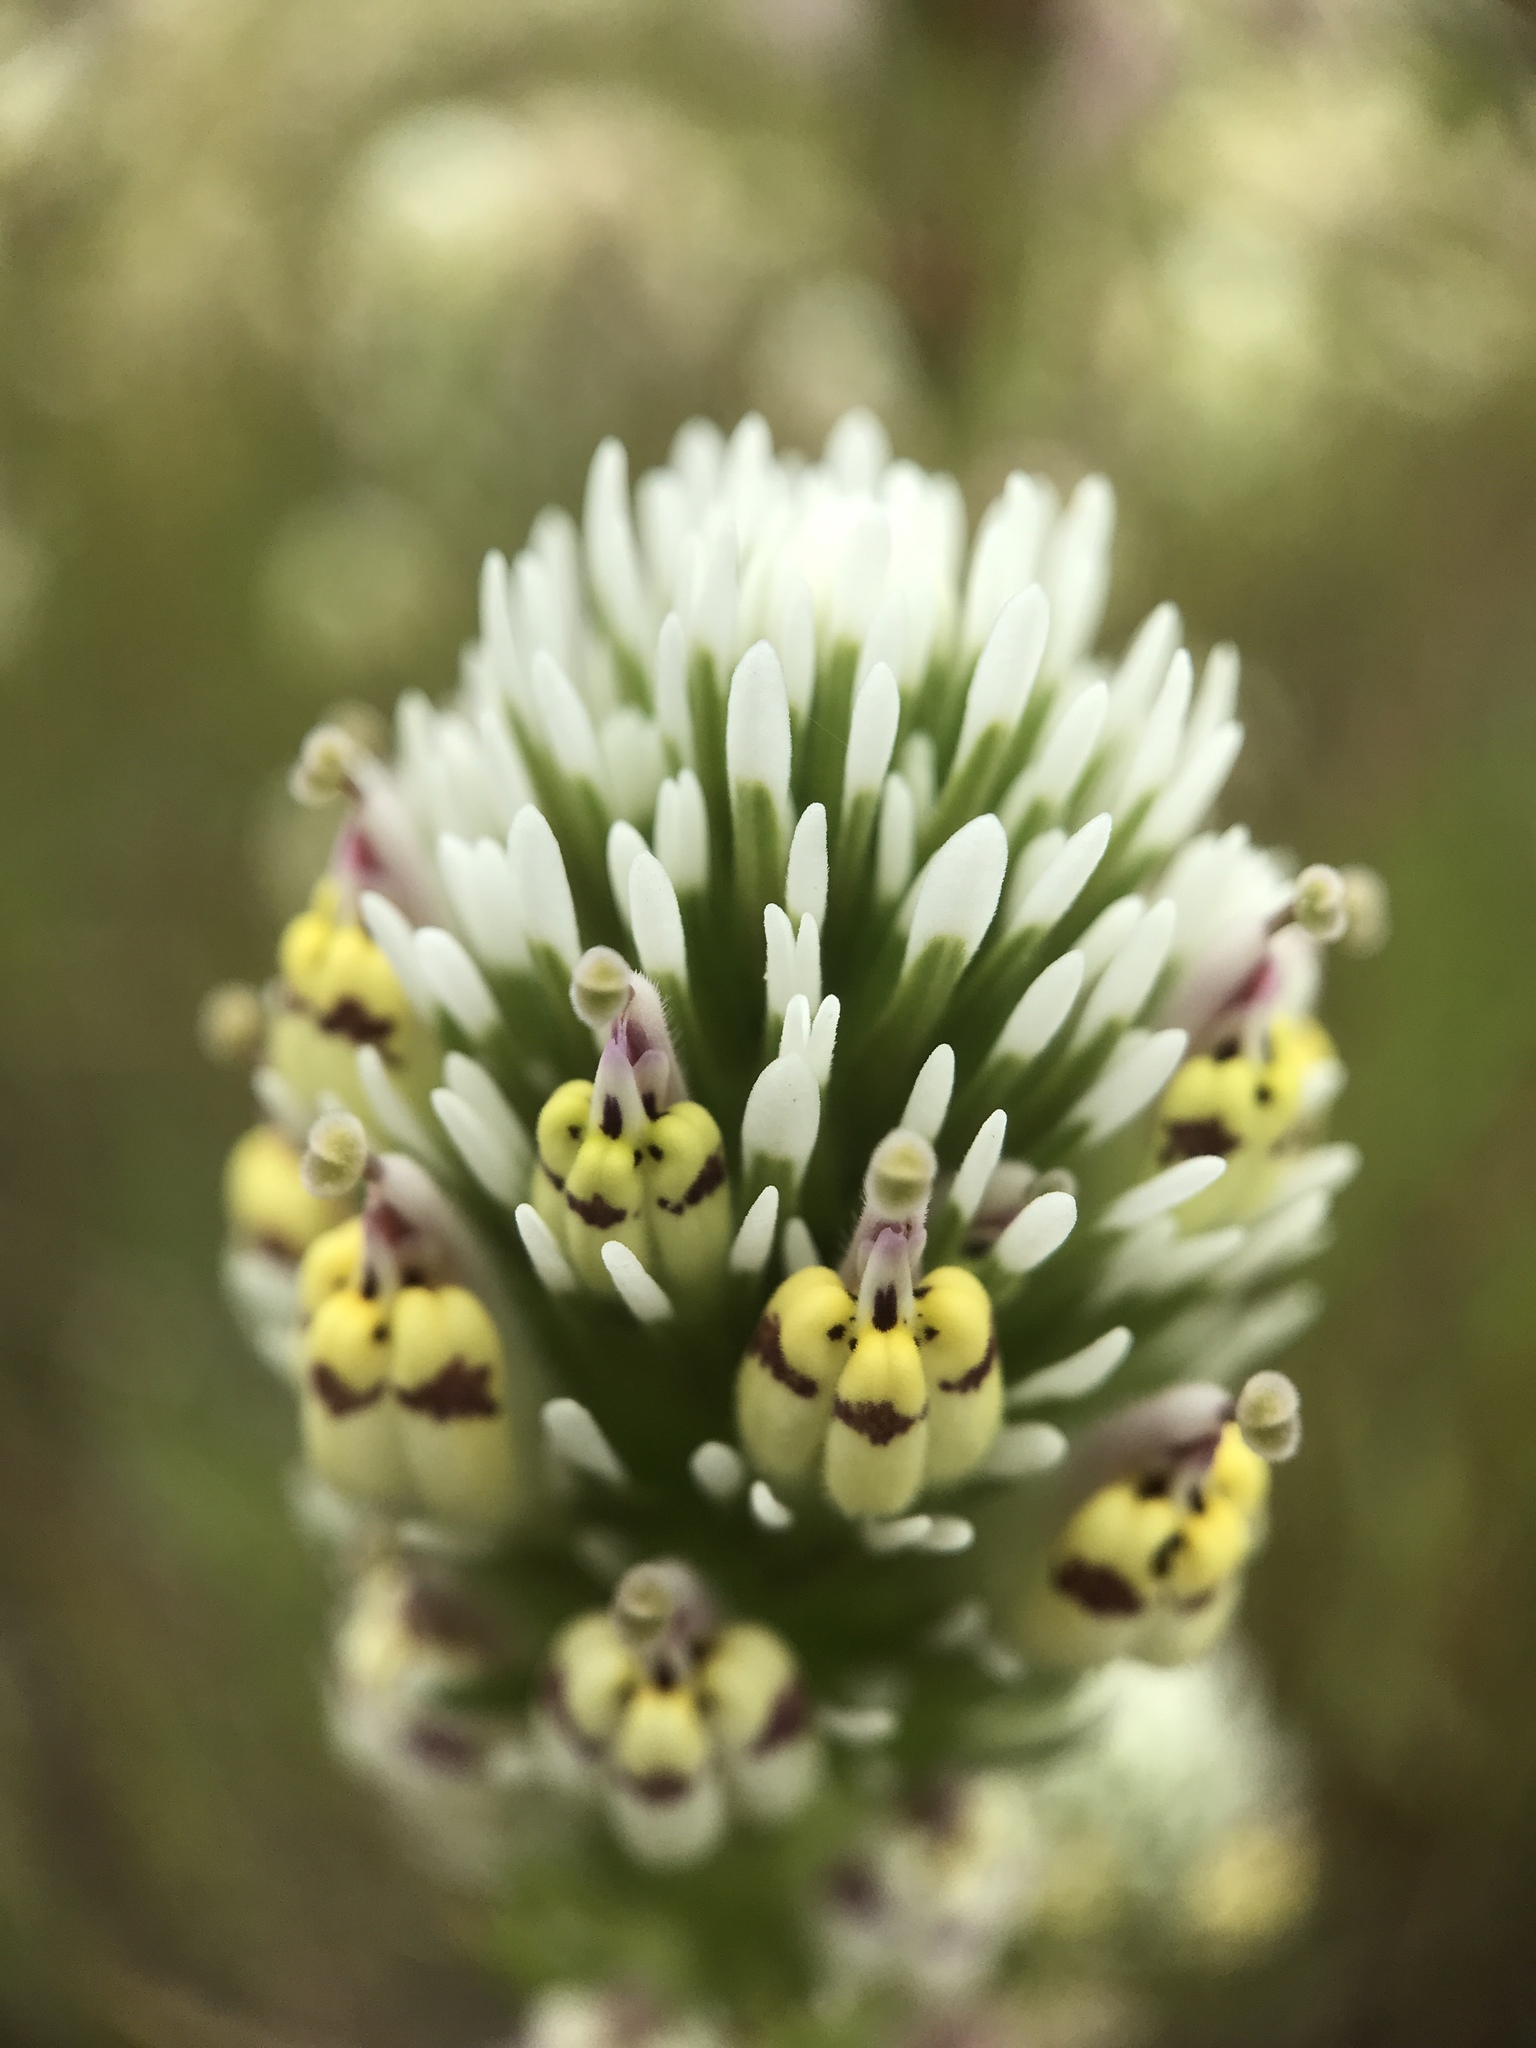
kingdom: Plantae
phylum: Tracheophyta
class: Magnoliopsida
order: Lamiales
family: Orobanchaceae
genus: Castilleja
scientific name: Castilleja densiflora
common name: Dense-flower indian paintbrush
